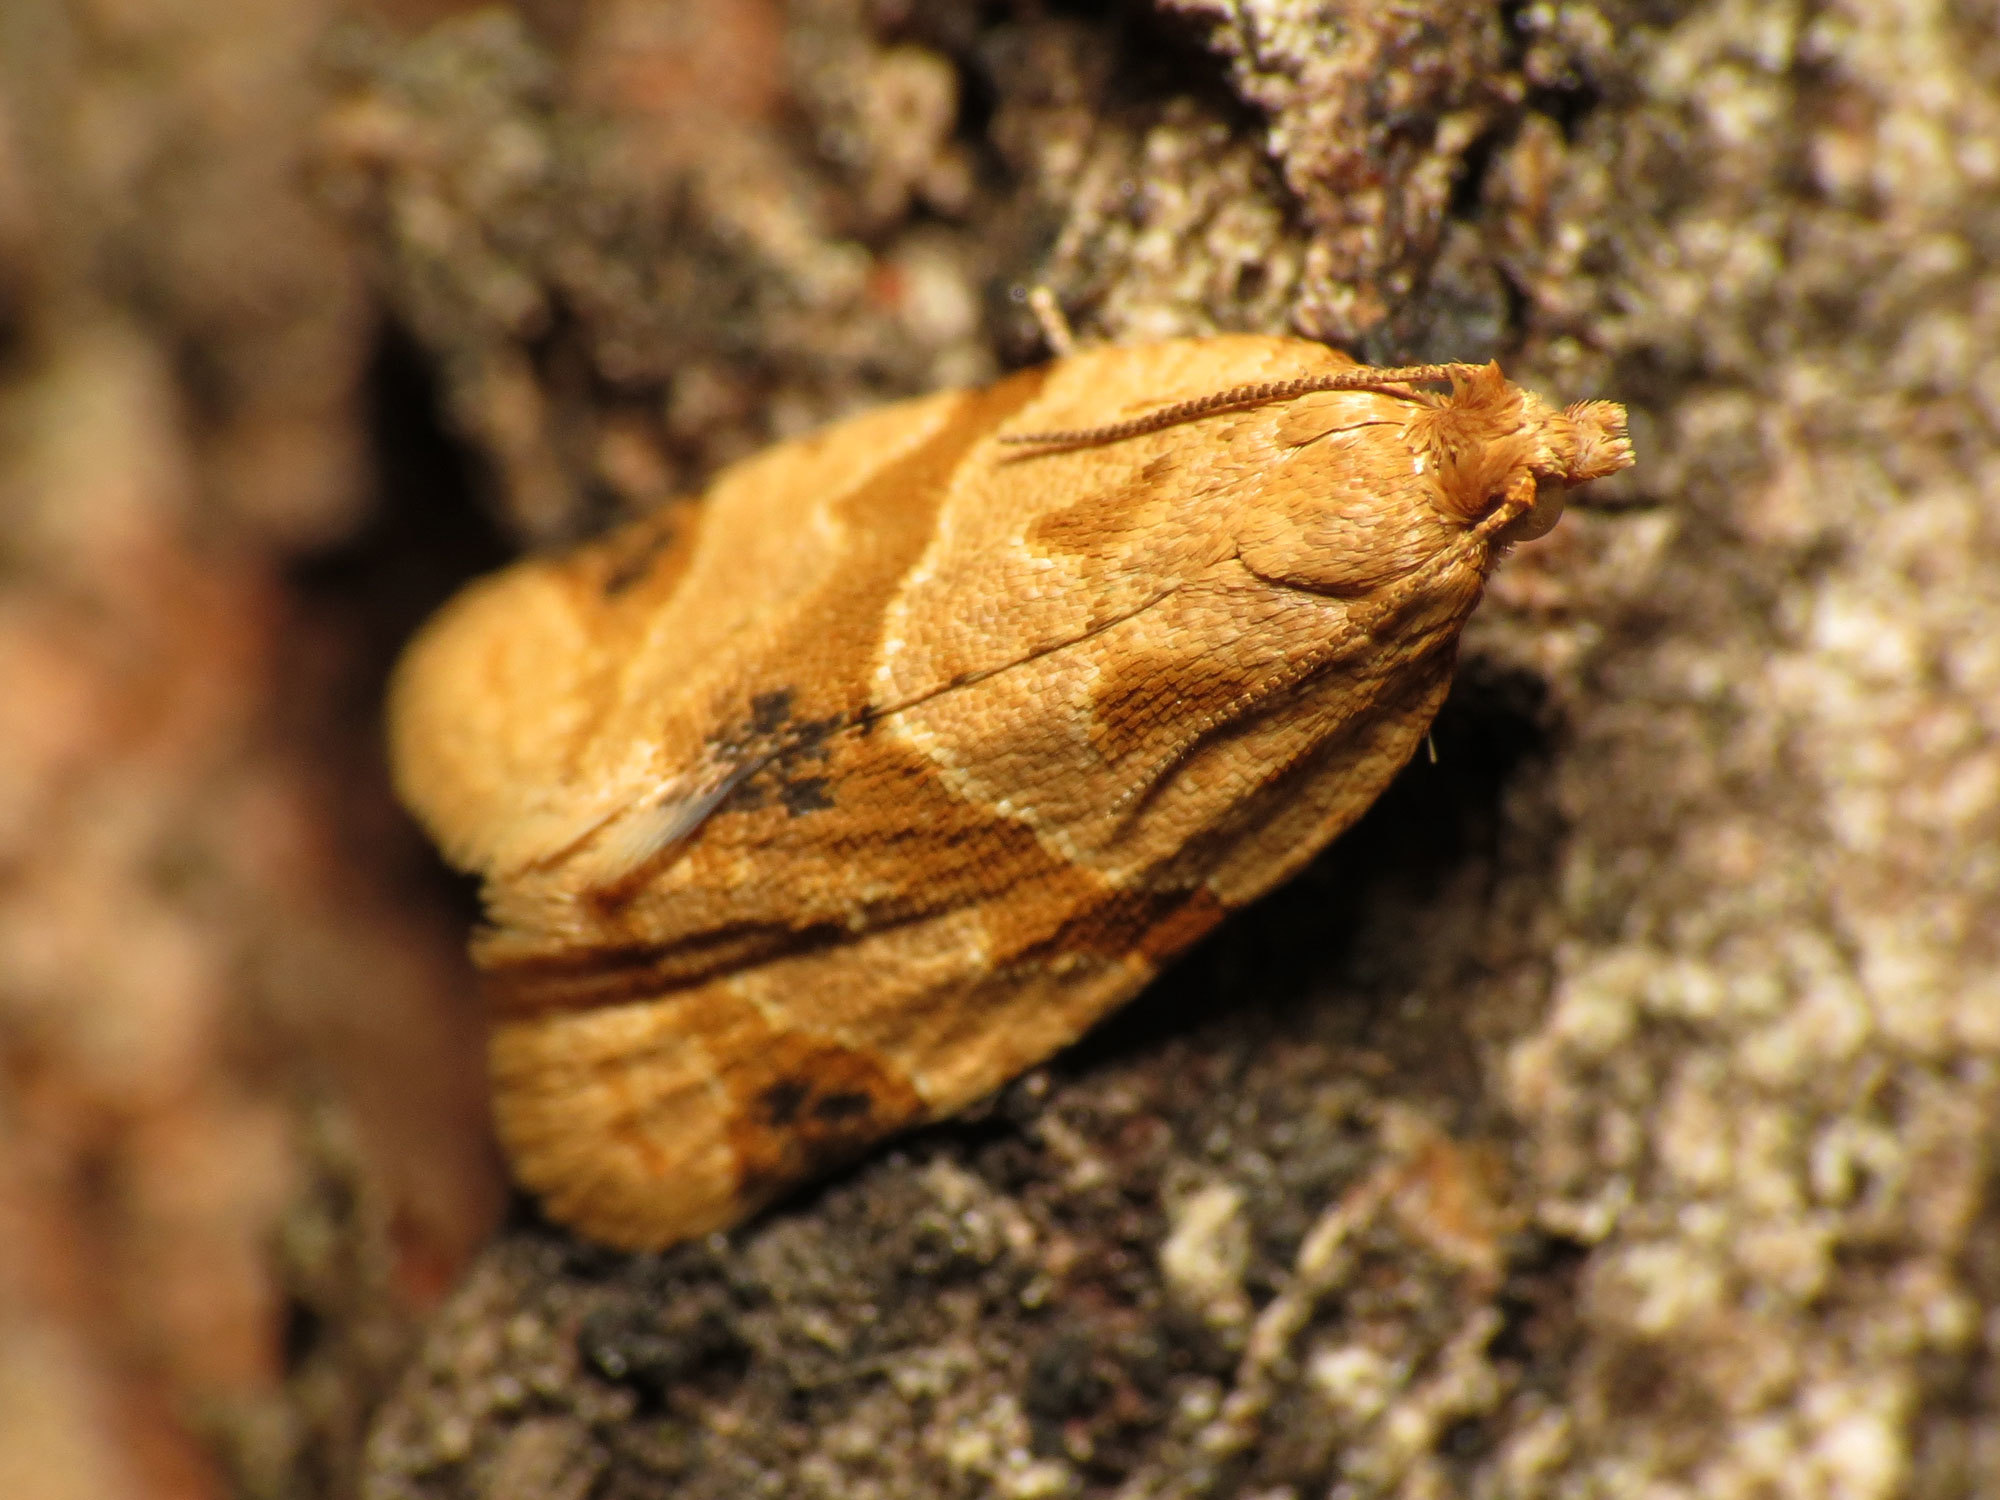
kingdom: Animalia
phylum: Arthropoda
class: Insecta
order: Lepidoptera
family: Tortricidae
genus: Clepsis
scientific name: Clepsis peritana
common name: Garden tortrix
